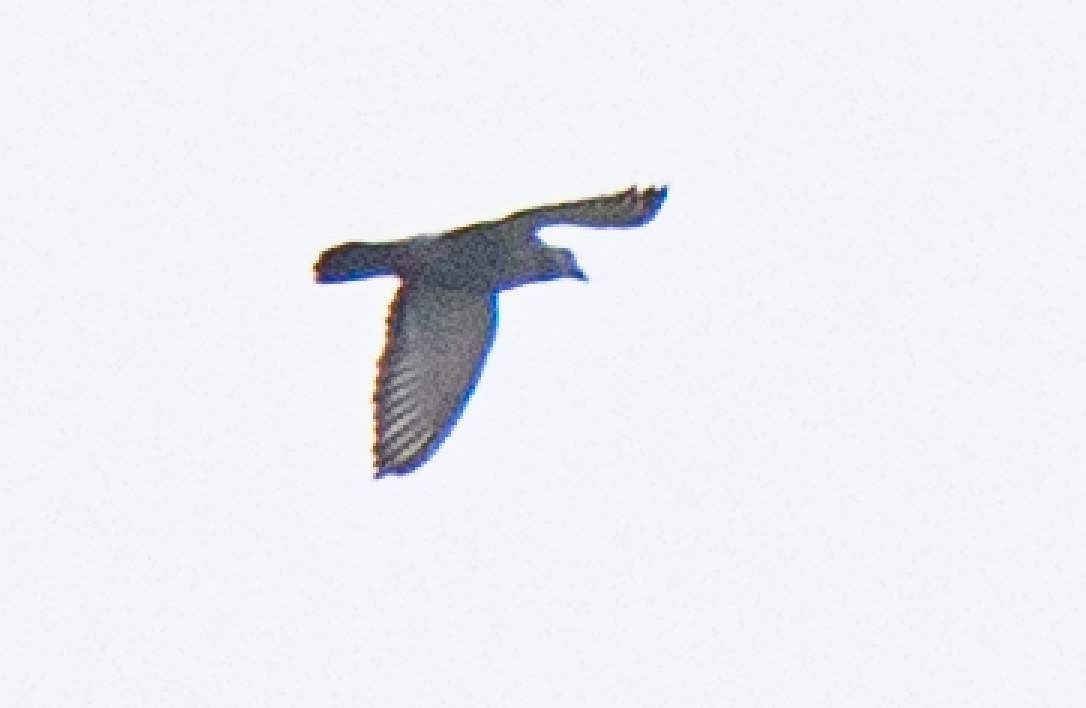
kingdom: Animalia
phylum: Chordata
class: Aves
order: Columbiformes
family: Columbidae
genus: Columba
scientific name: Columba livia
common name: Rock pigeon
